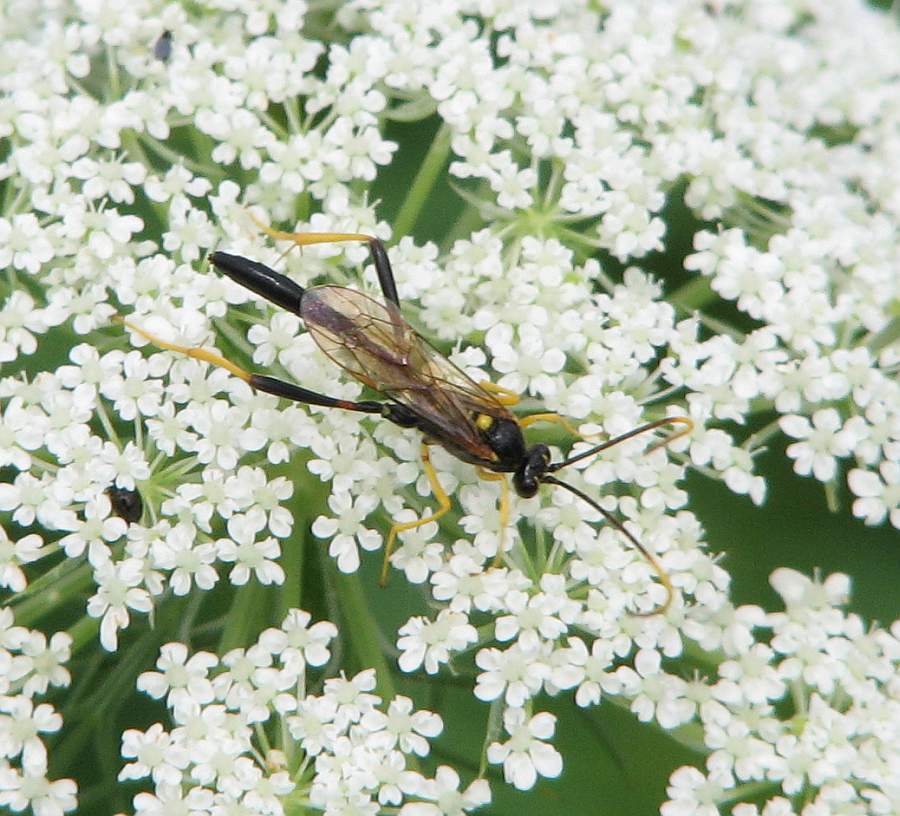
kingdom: Animalia
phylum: Arthropoda
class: Insecta
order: Hymenoptera
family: Ichneumonidae
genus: Acroricnus
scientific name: Acroricnus stylator
